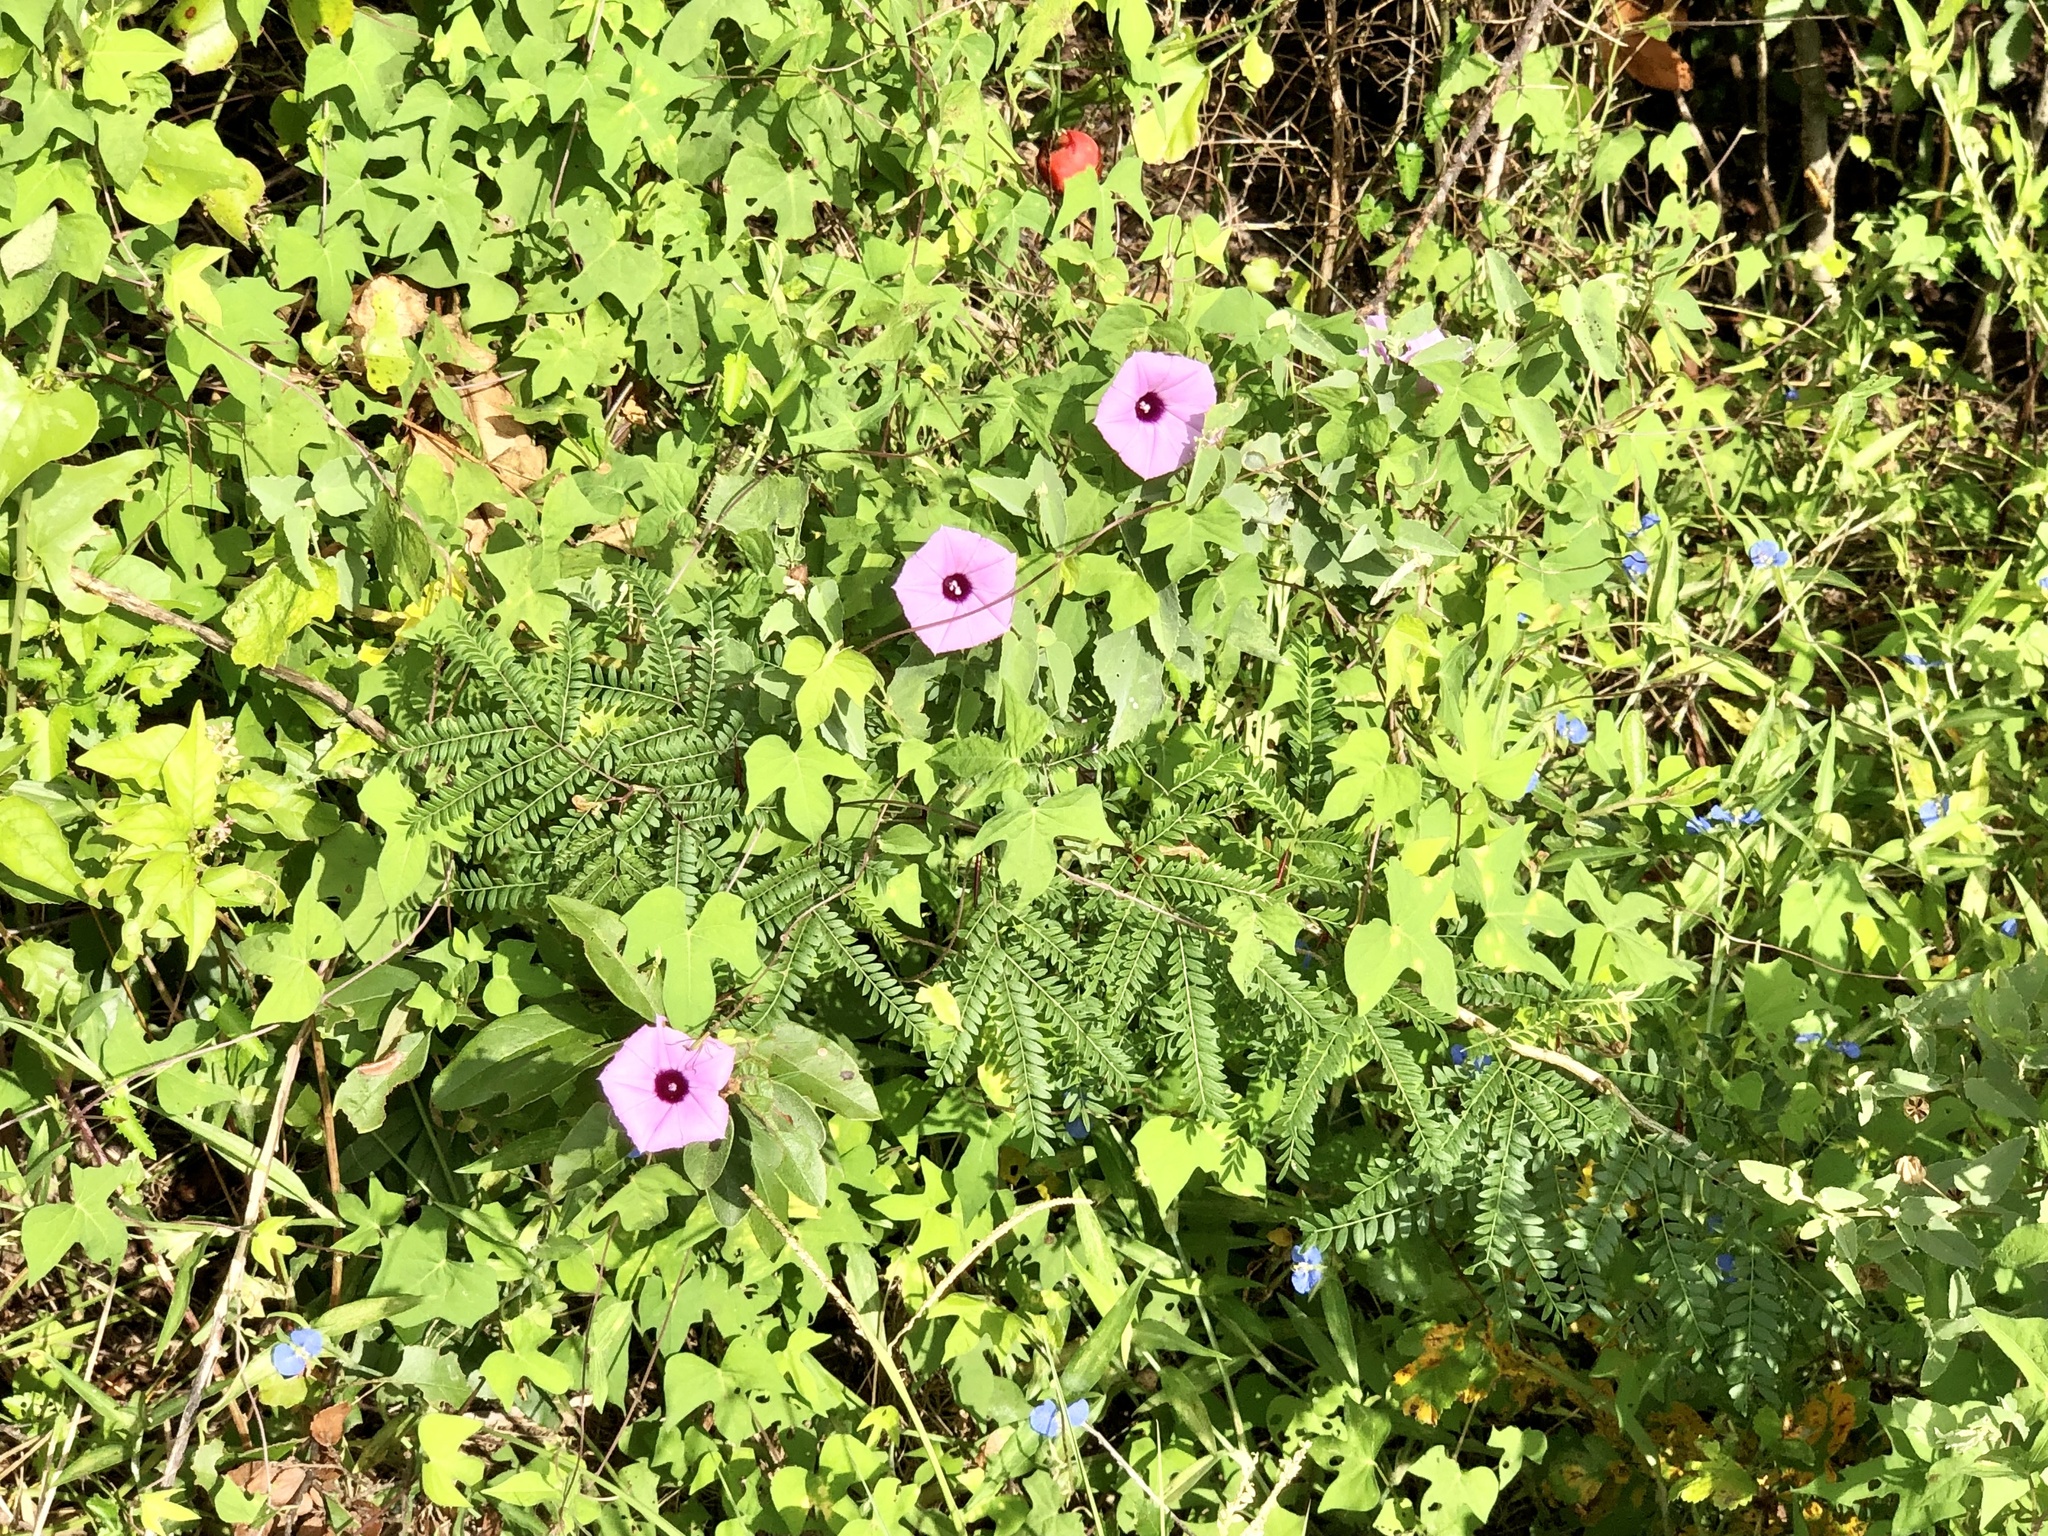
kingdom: Plantae
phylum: Tracheophyta
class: Magnoliopsida
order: Solanales
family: Convolvulaceae
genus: Ipomoea
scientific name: Ipomoea cordatotriloba
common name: Cotton morning glory
